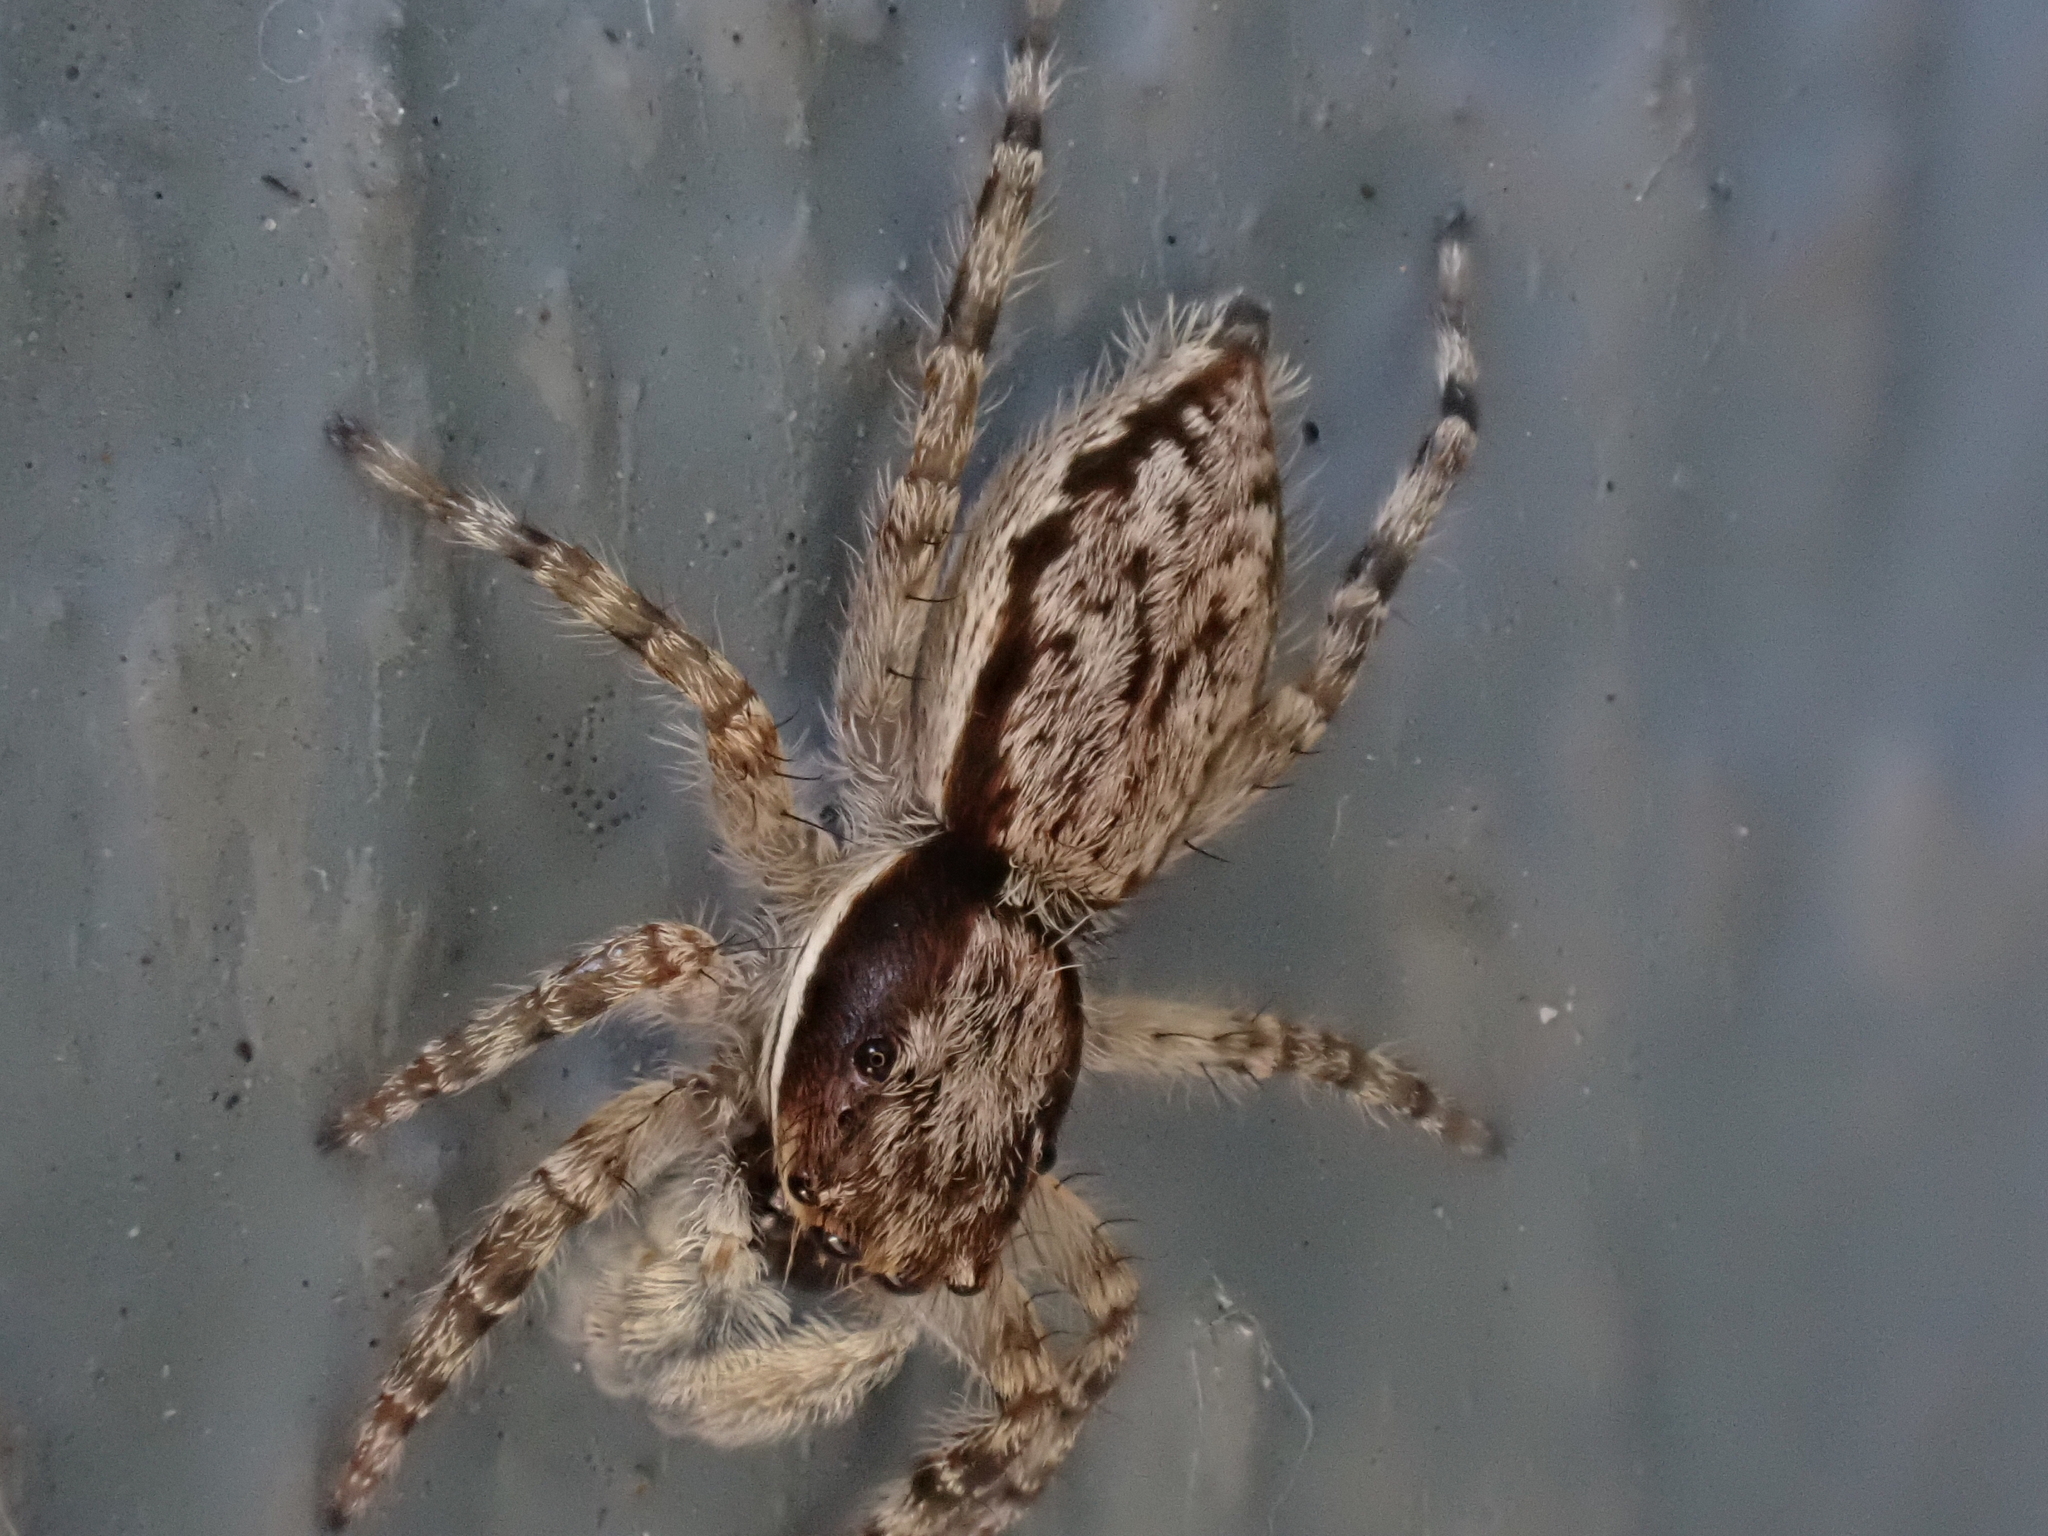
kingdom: Animalia
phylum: Arthropoda
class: Arachnida
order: Araneae
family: Salticidae
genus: Menemerus
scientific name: Menemerus bivittatus
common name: Gray wall jumper
